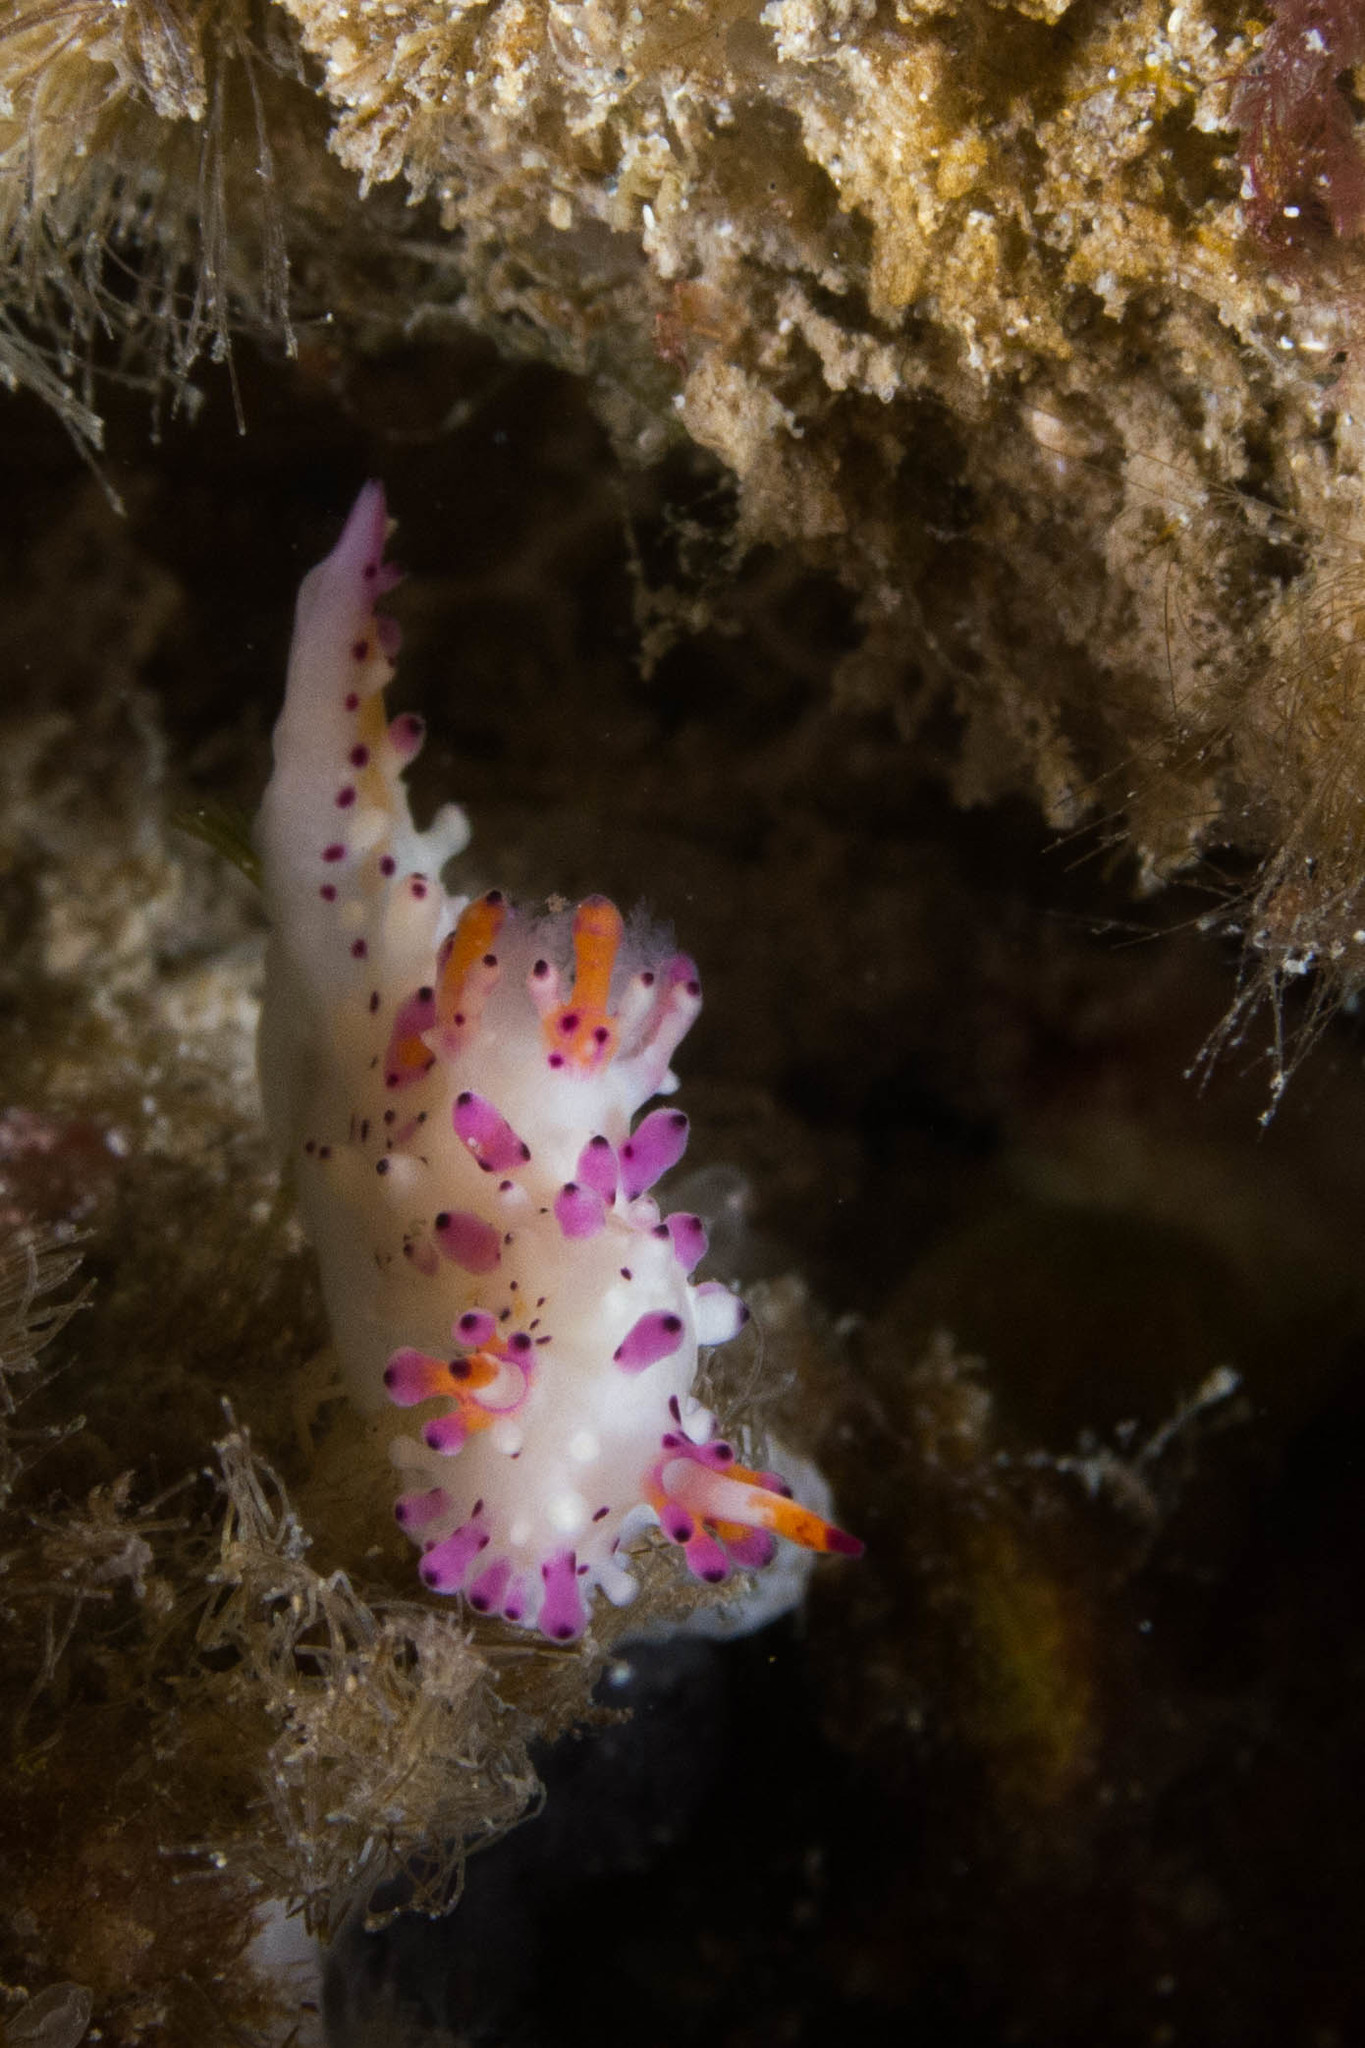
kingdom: Animalia
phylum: Mollusca
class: Gastropoda
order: Nudibranchia
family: Aegiridae
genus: Aegires
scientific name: Aegires villosus
